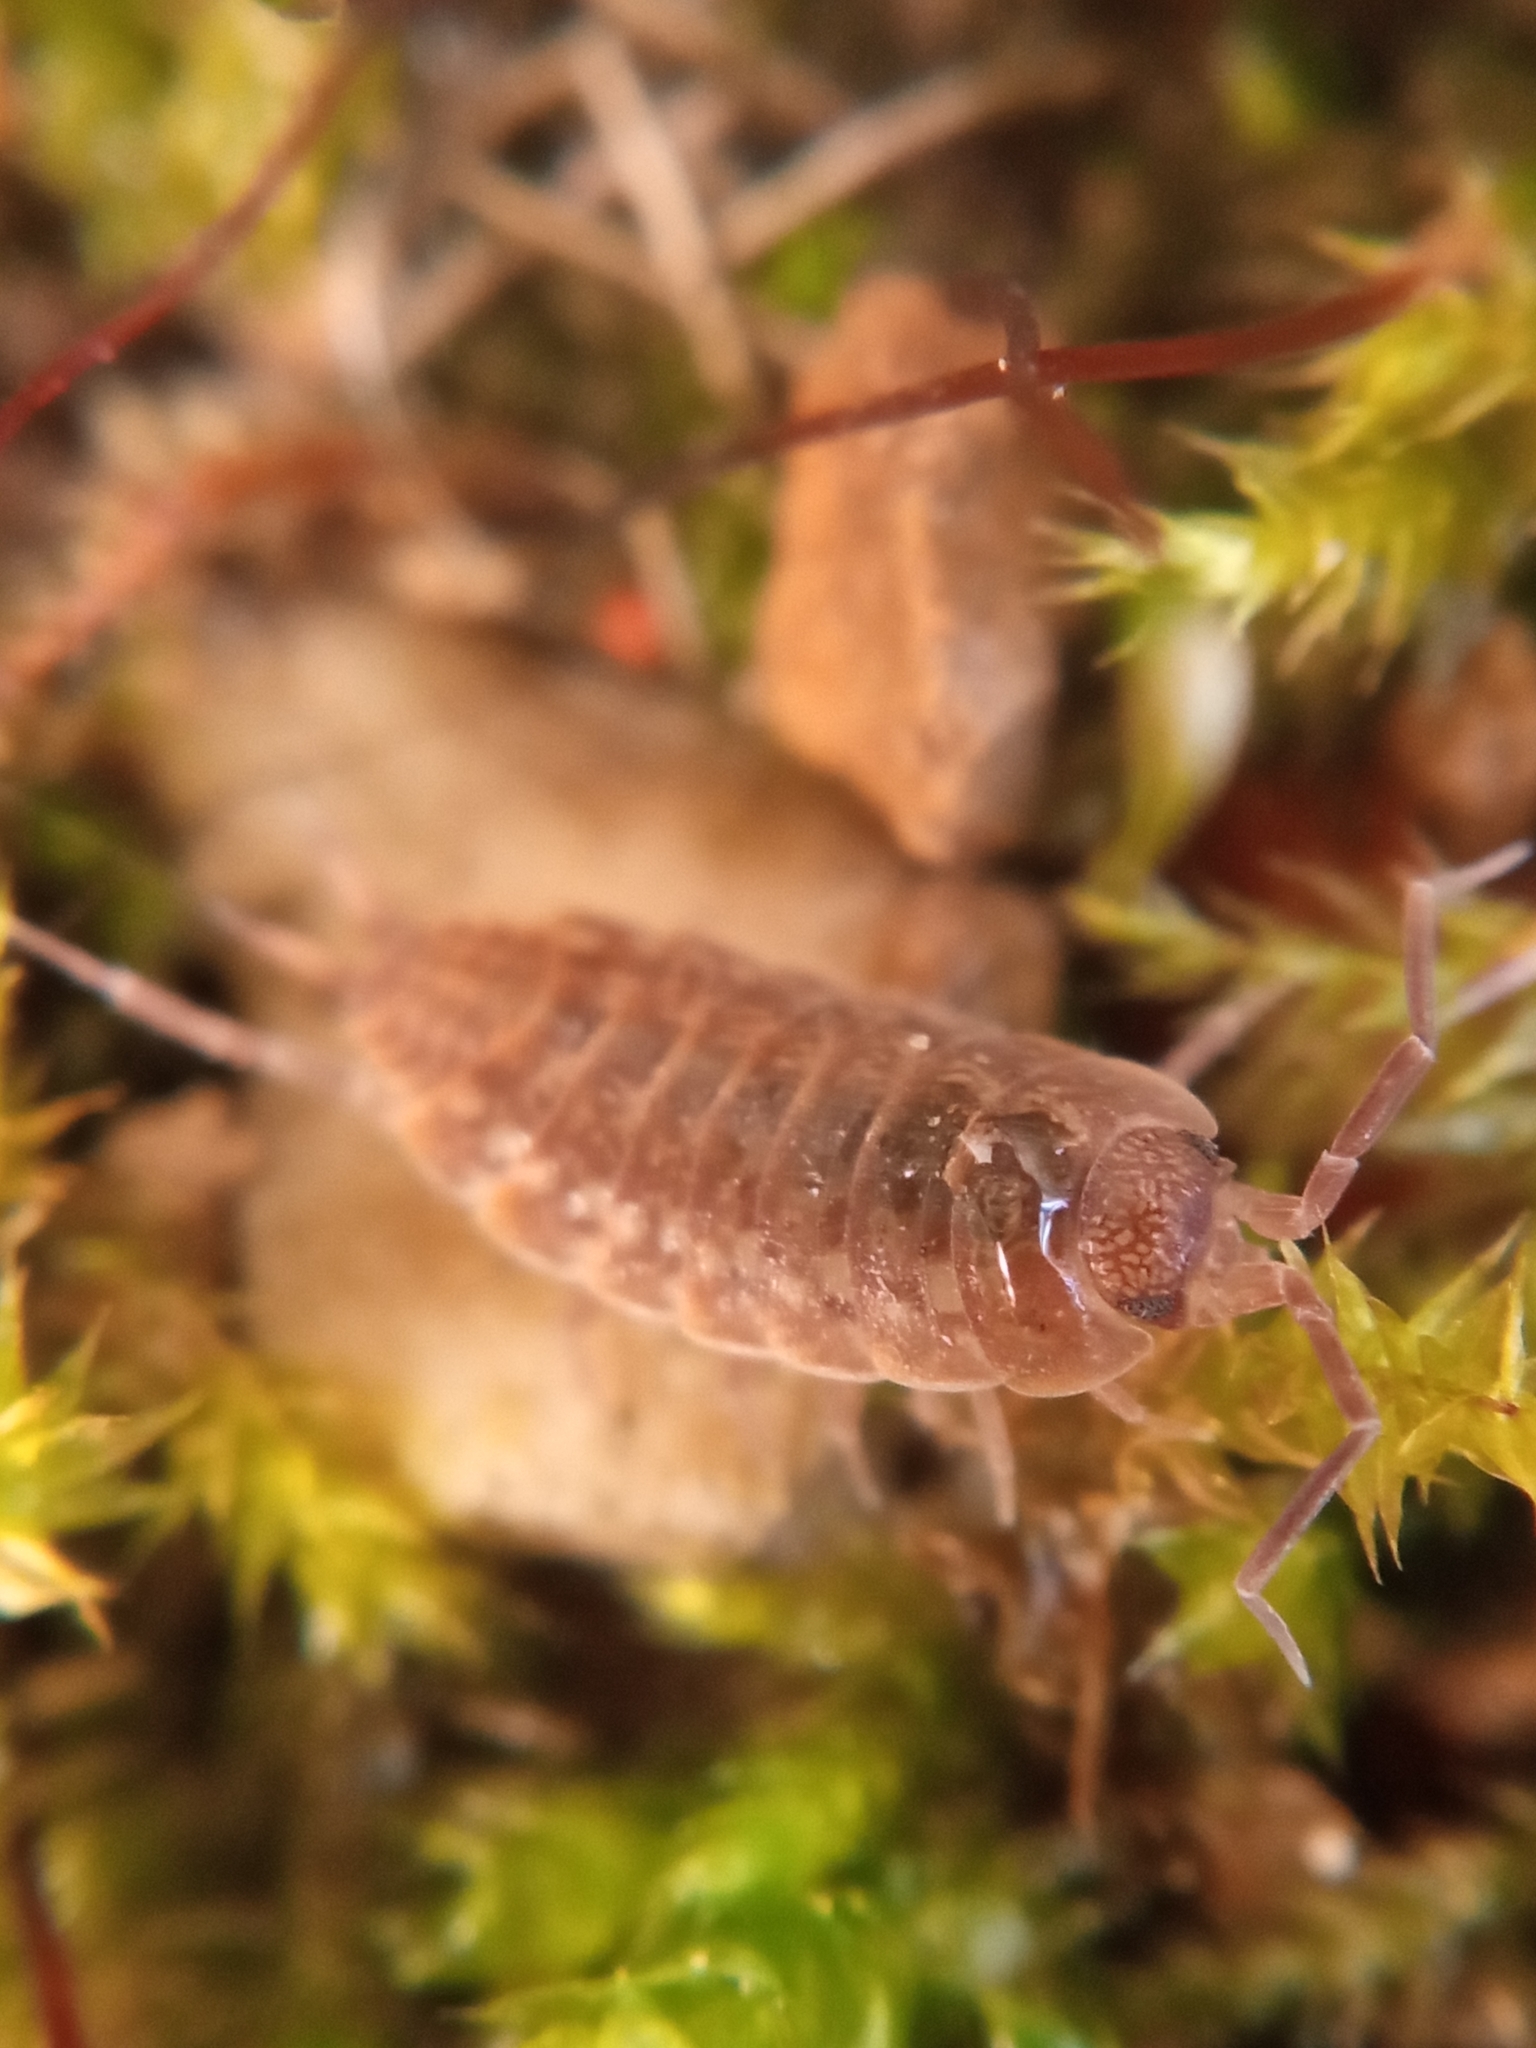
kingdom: Animalia
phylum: Arthropoda
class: Malacostraca
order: Isopoda
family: Agnaridae
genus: Orthometopon
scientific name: Orthometopon planum
